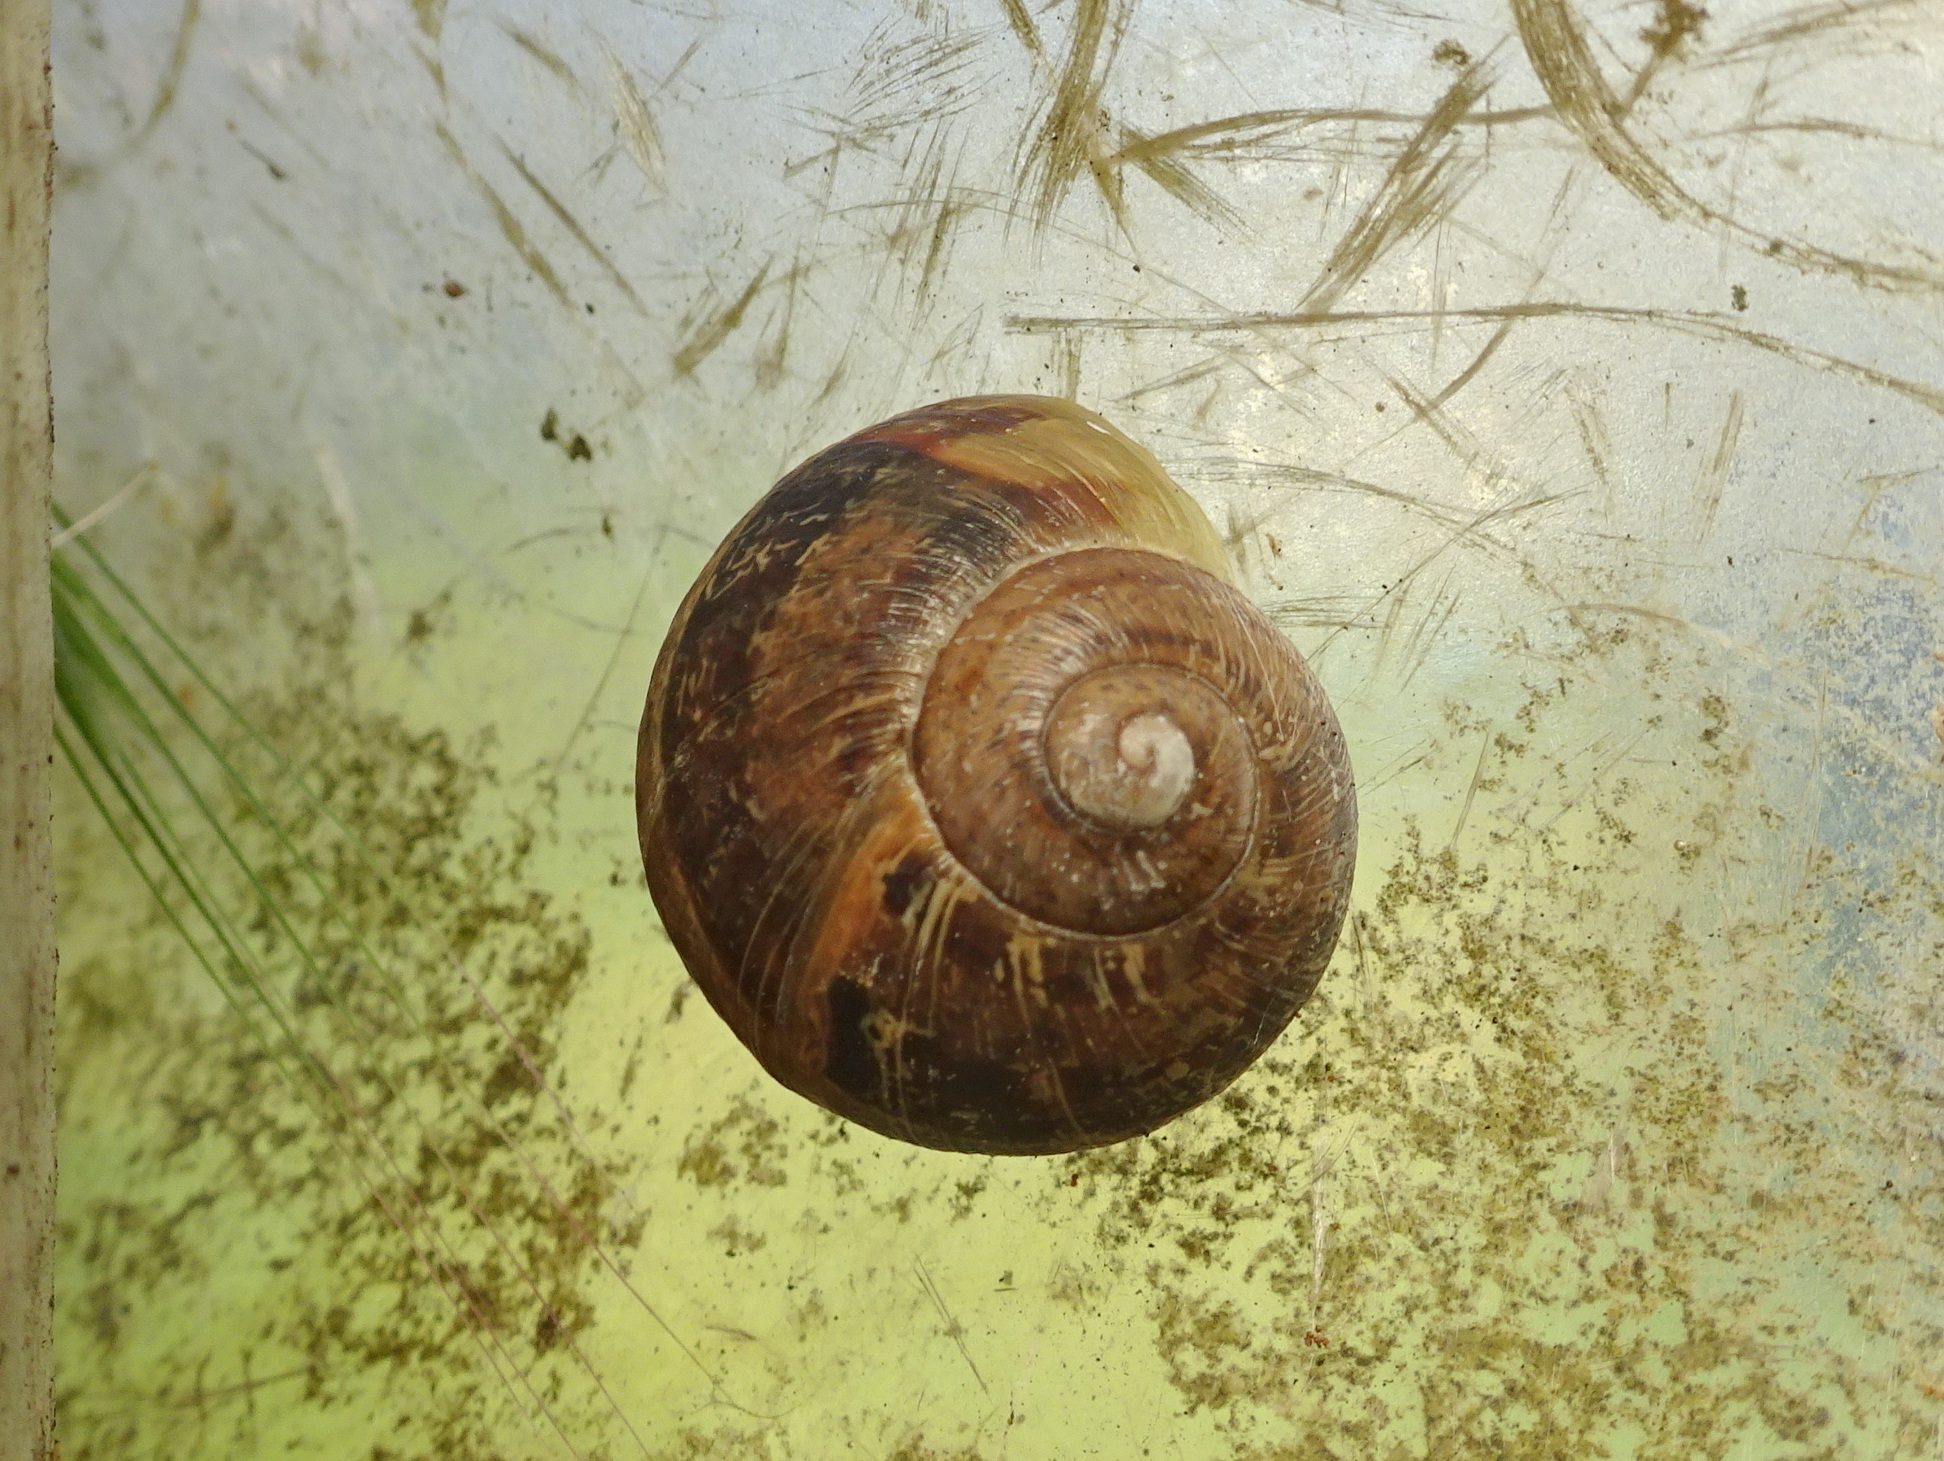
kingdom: Animalia
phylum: Mollusca
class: Gastropoda
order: Stylommatophora
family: Helicidae
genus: Cornu
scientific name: Cornu aspersum
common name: Brown garden snail
